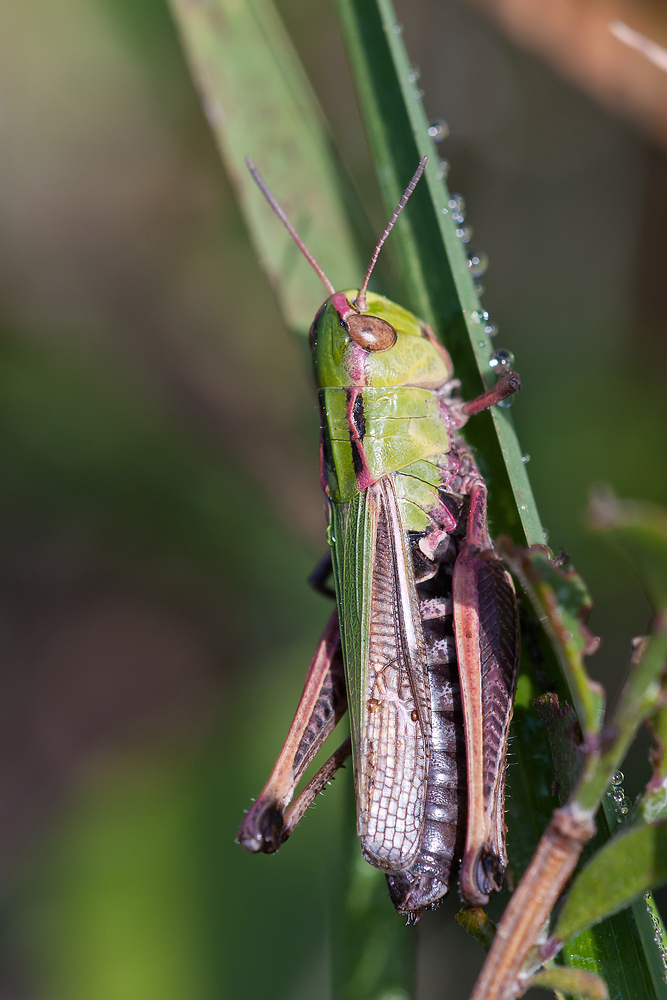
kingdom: Animalia
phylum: Arthropoda
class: Insecta
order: Orthoptera
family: Acrididae
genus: Stenobothrus
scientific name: Stenobothrus lineatus
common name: Stripe-winged grasshopper
